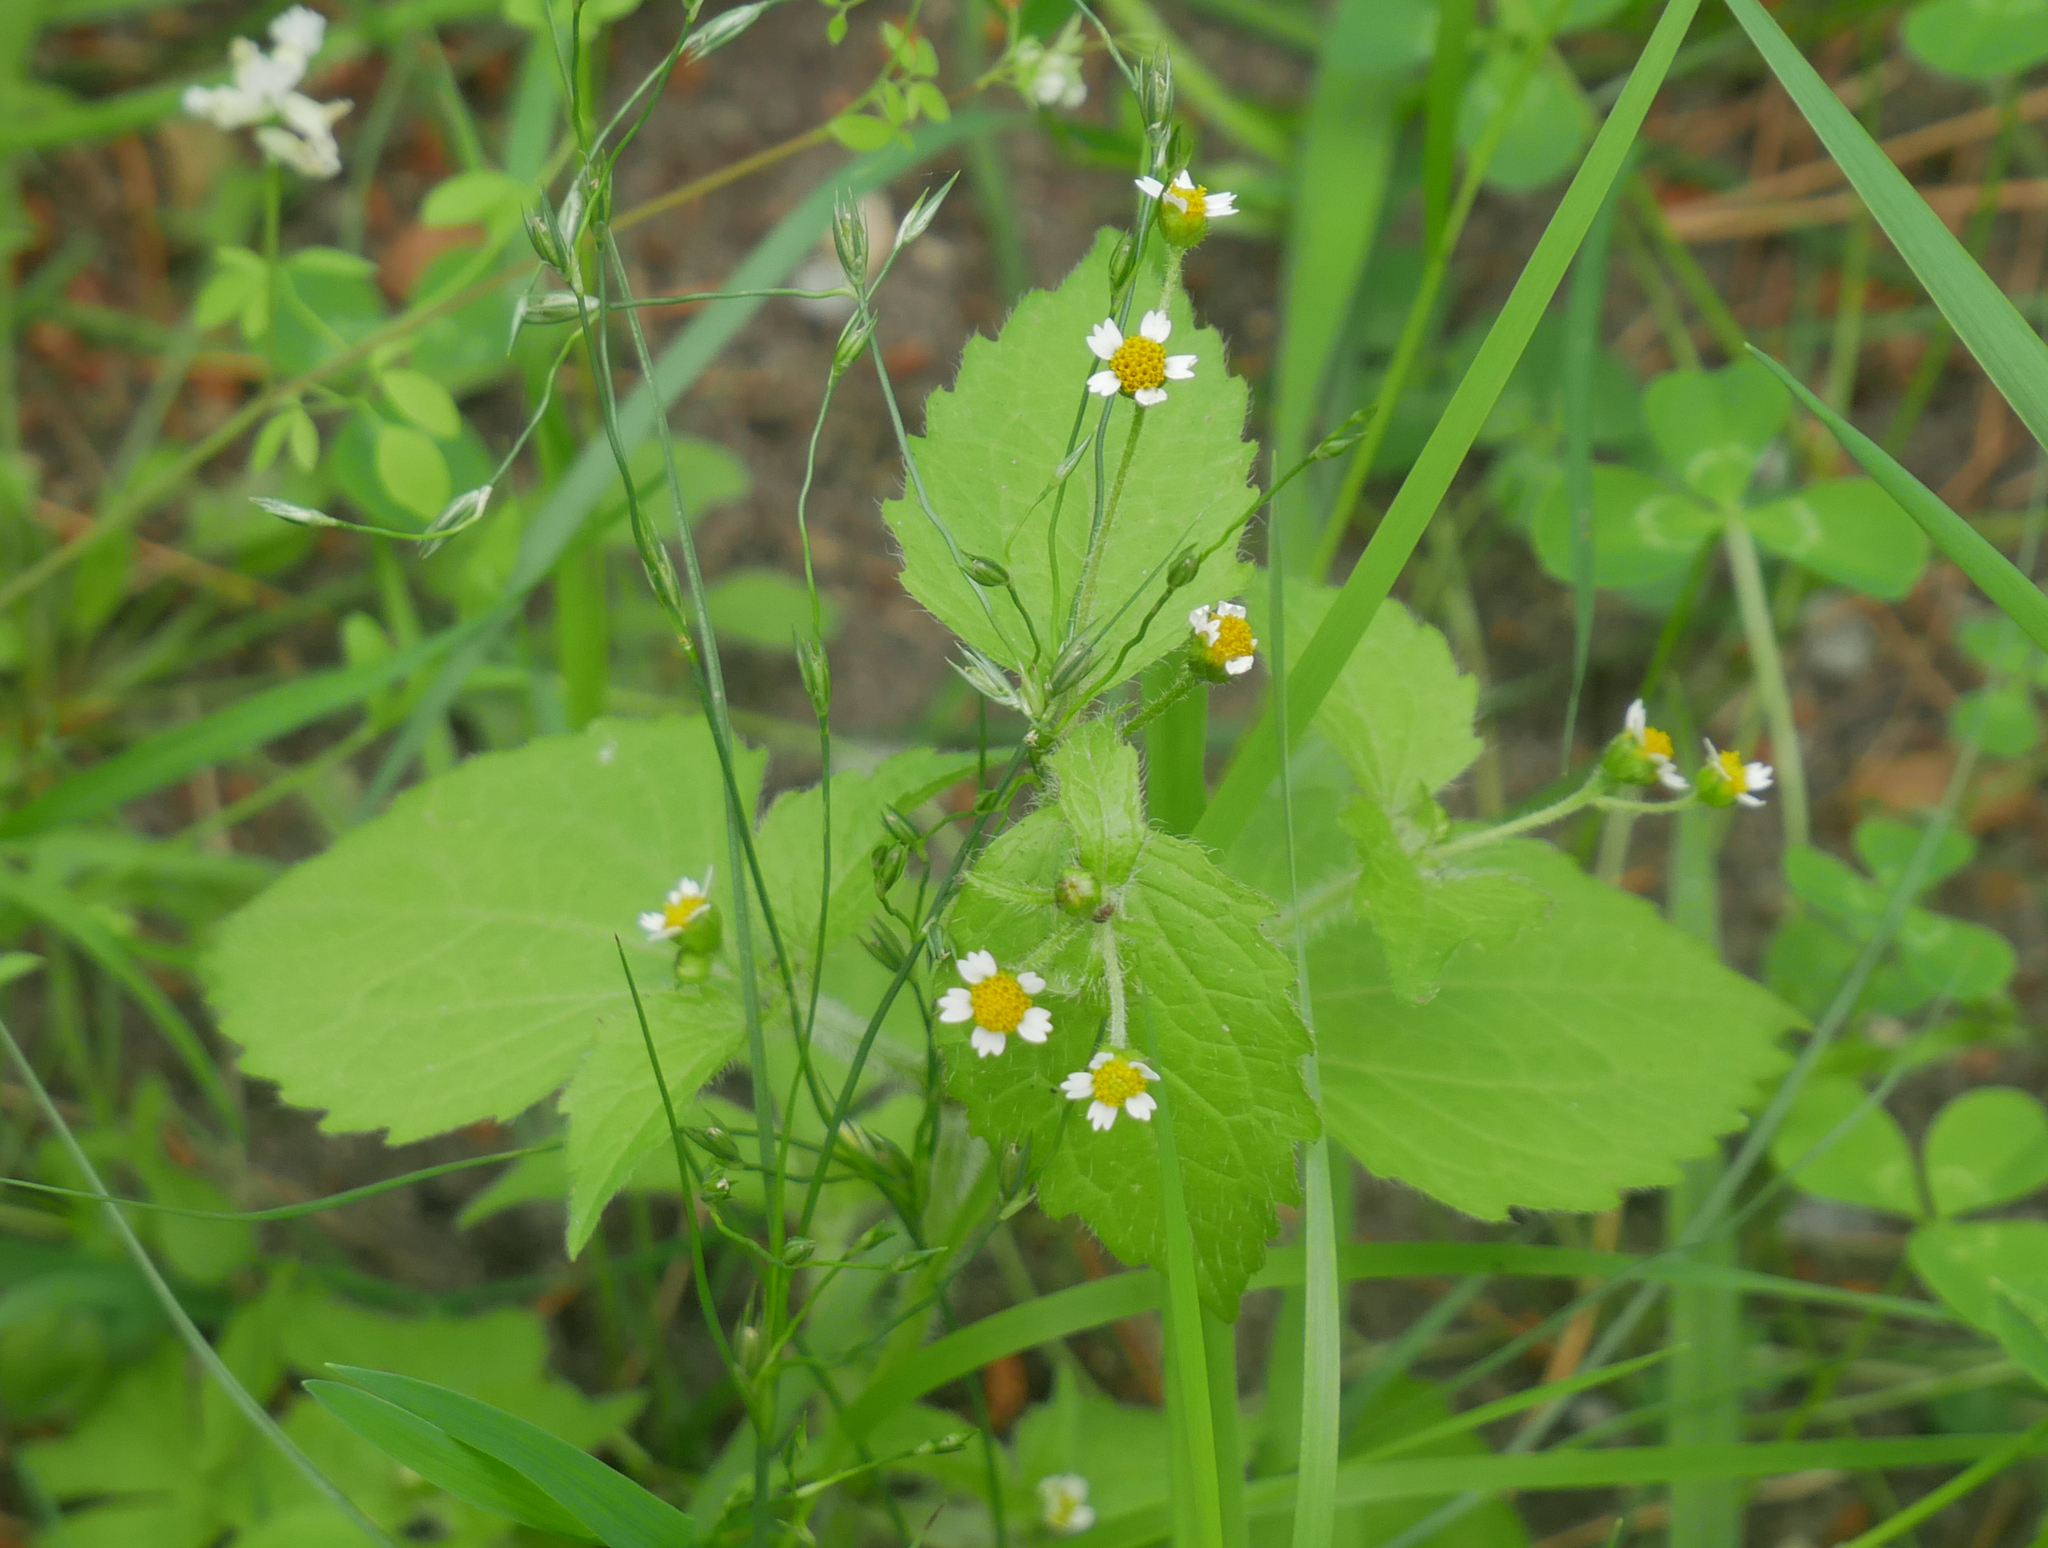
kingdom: Plantae
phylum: Tracheophyta
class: Magnoliopsida
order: Asterales
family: Asteraceae
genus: Galinsoga
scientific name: Galinsoga quadriradiata
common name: Shaggy soldier
